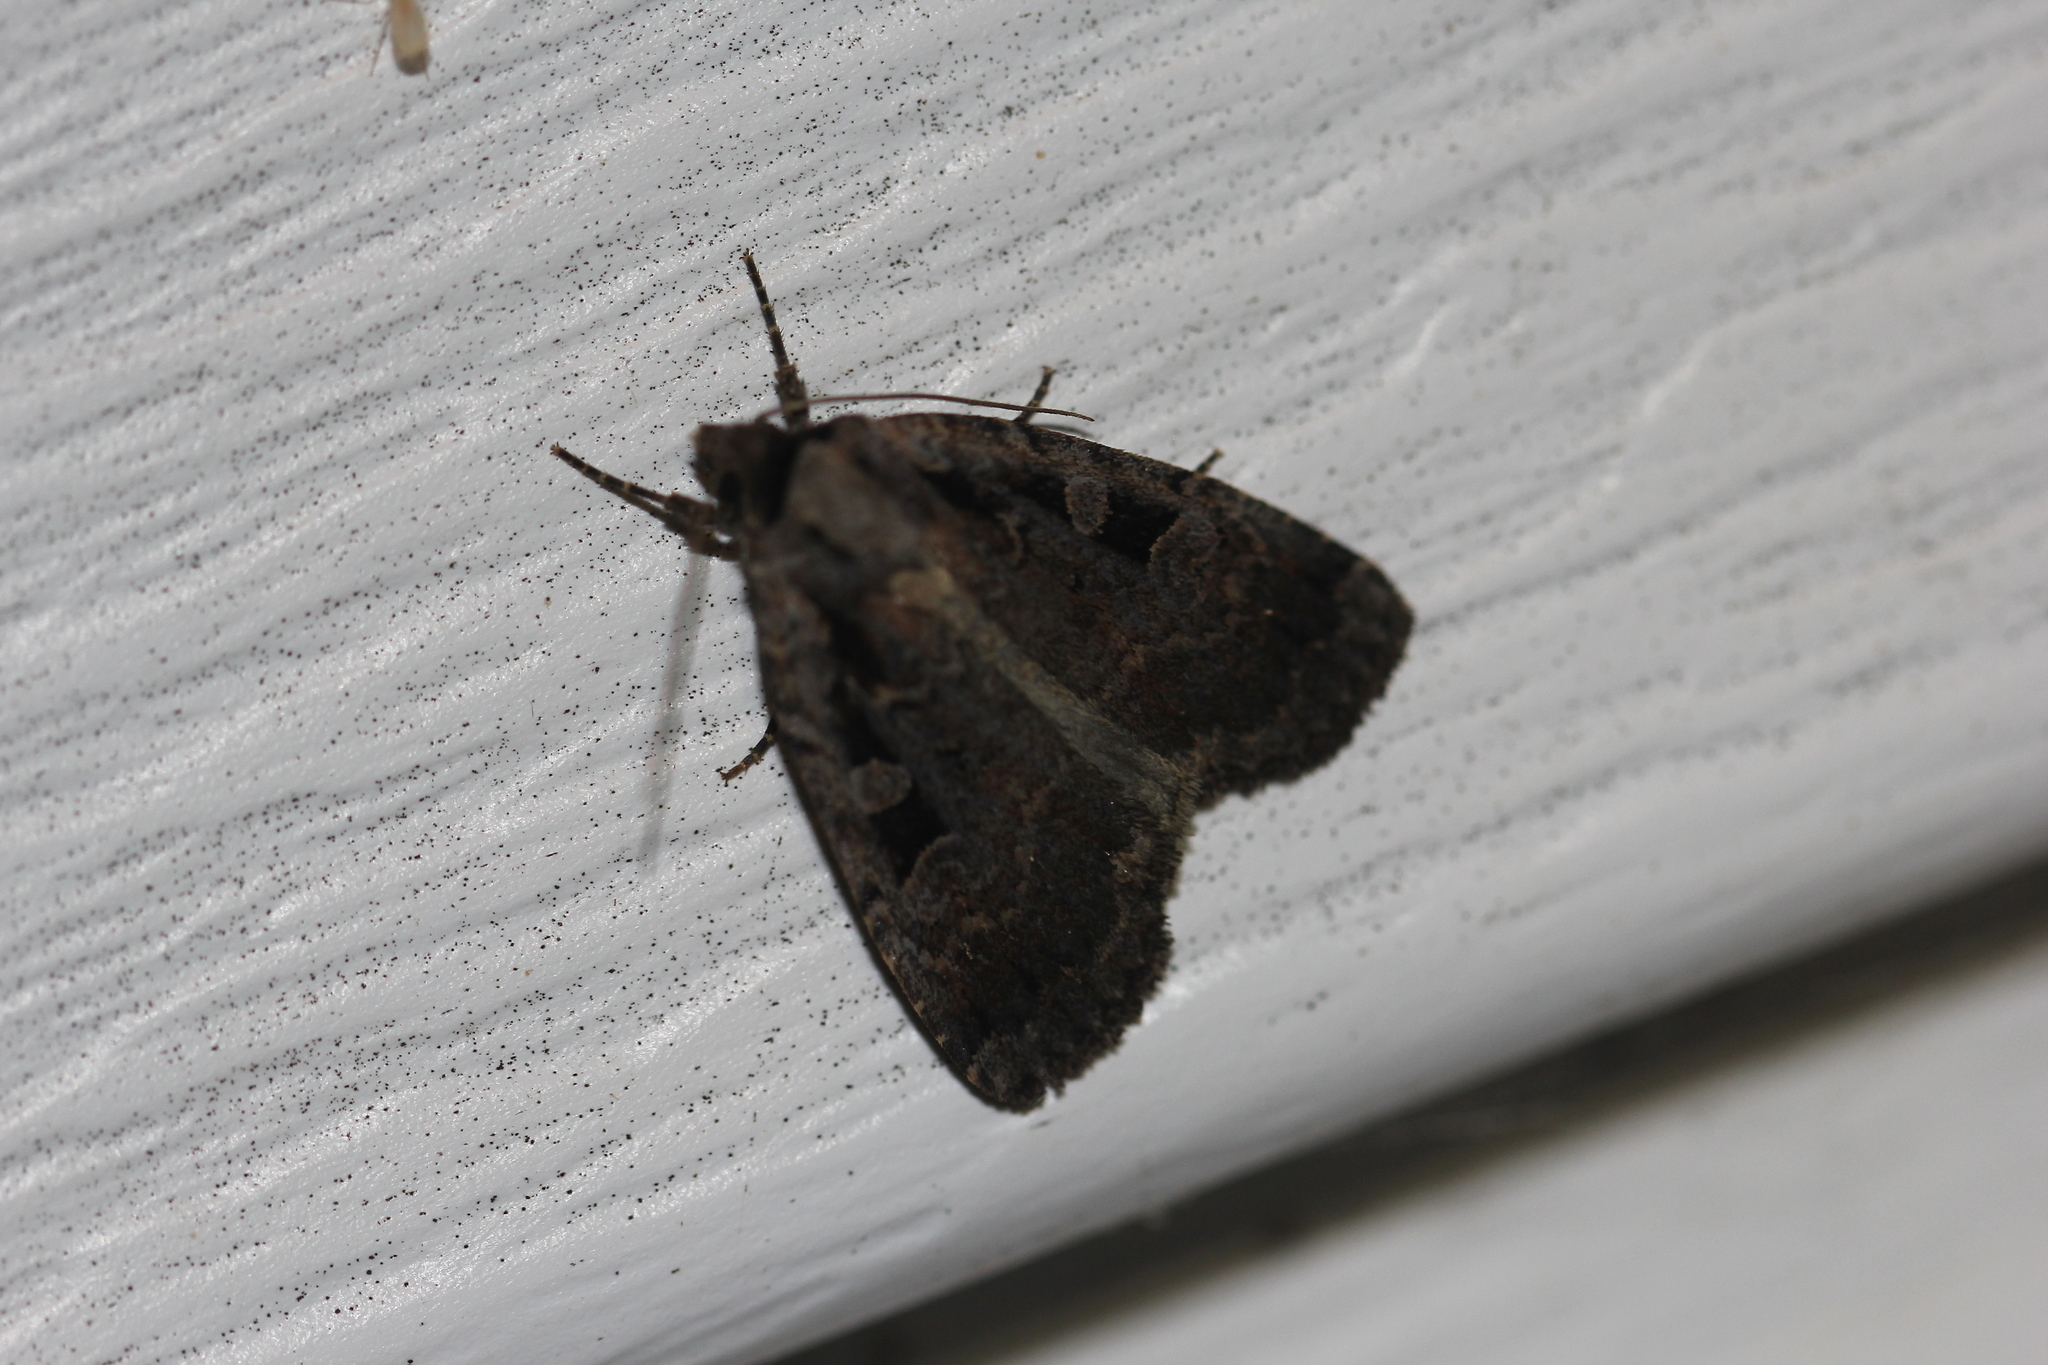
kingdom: Animalia
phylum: Arthropoda
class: Insecta
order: Lepidoptera
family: Noctuidae
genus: Eueretagrotis
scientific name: Eueretagrotis perattentus
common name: Two-spot dart moth
